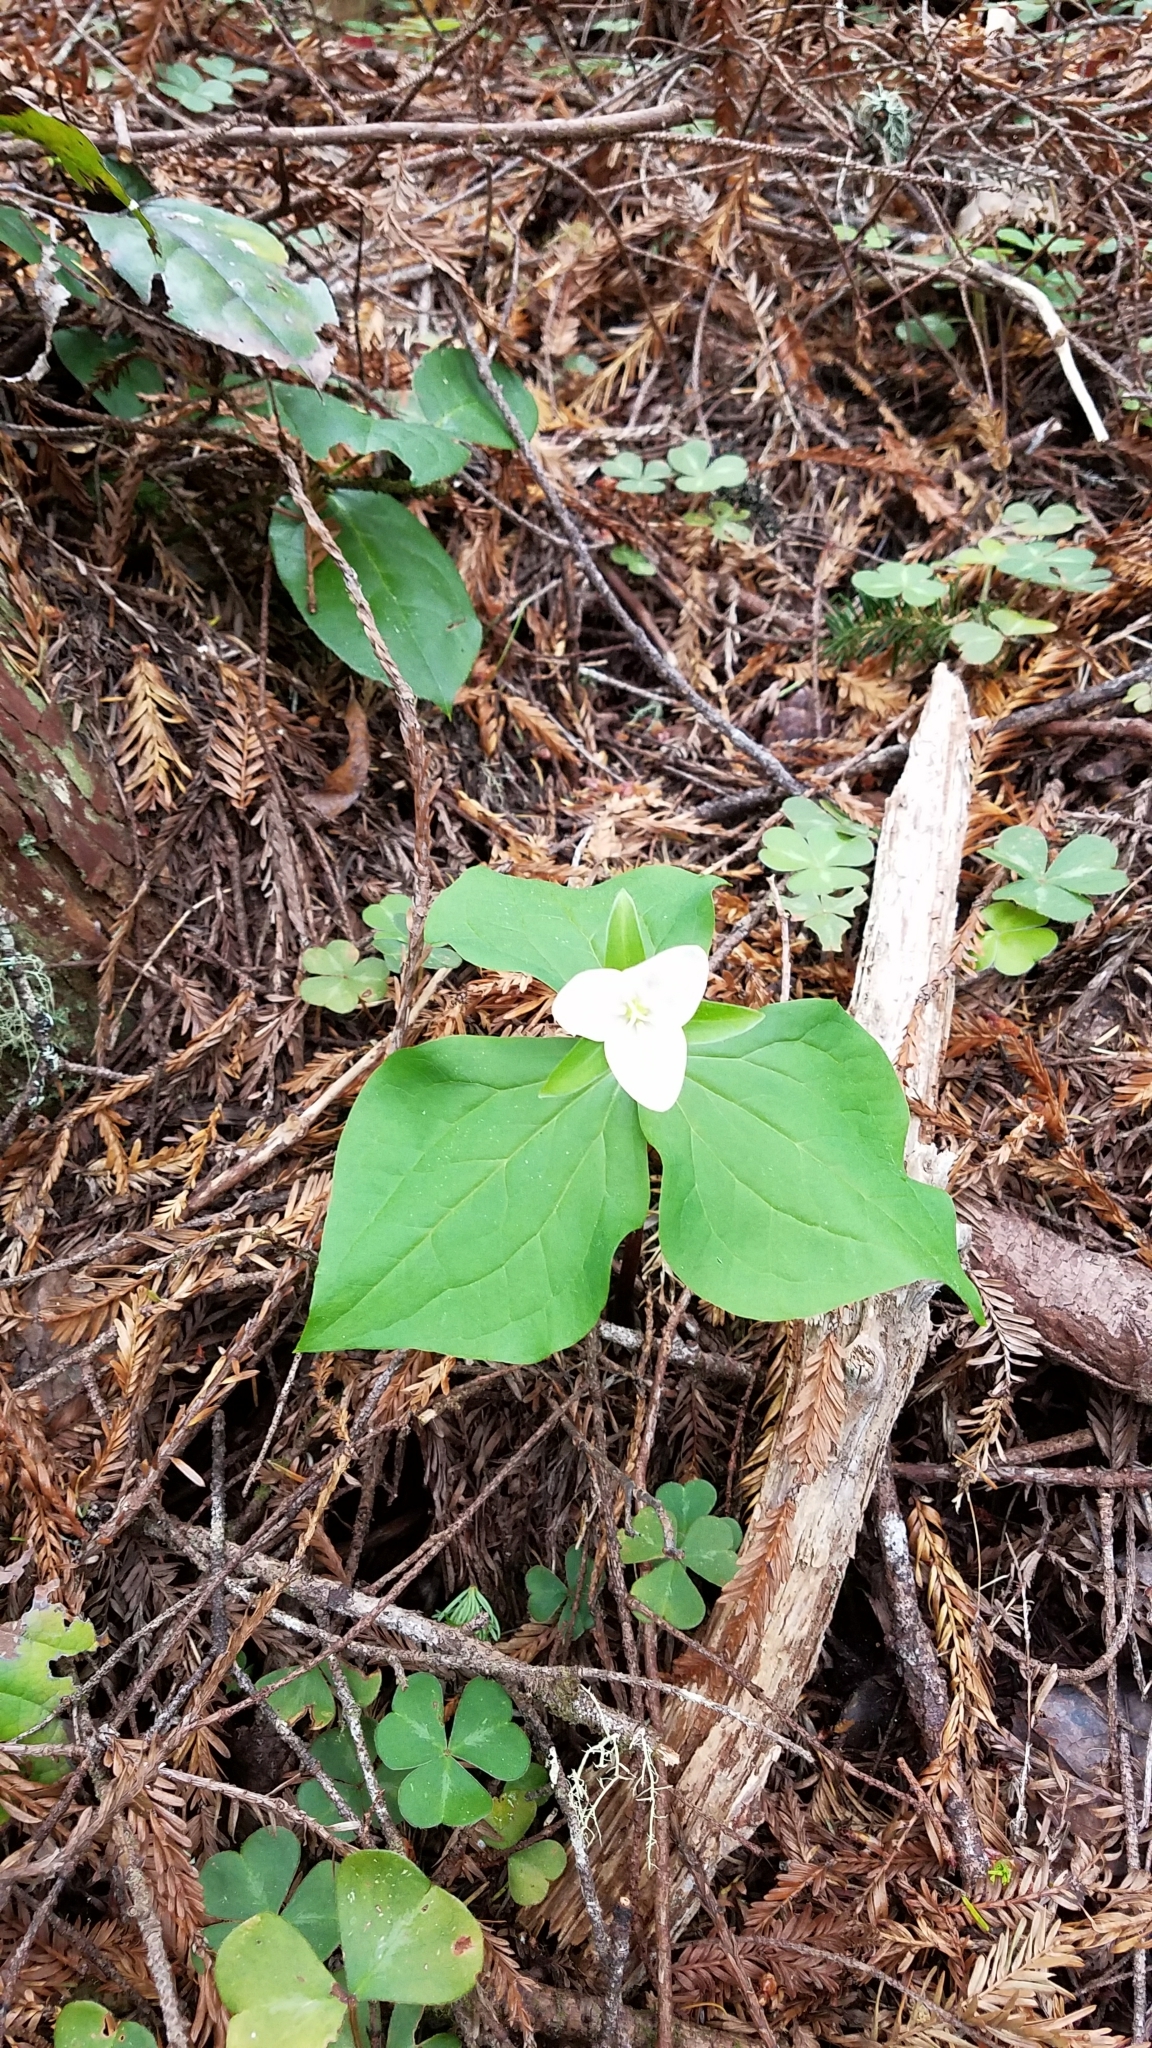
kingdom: Plantae
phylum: Tracheophyta
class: Liliopsida
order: Liliales
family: Melanthiaceae
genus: Trillium
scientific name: Trillium ovatum
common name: Pacific trillium
